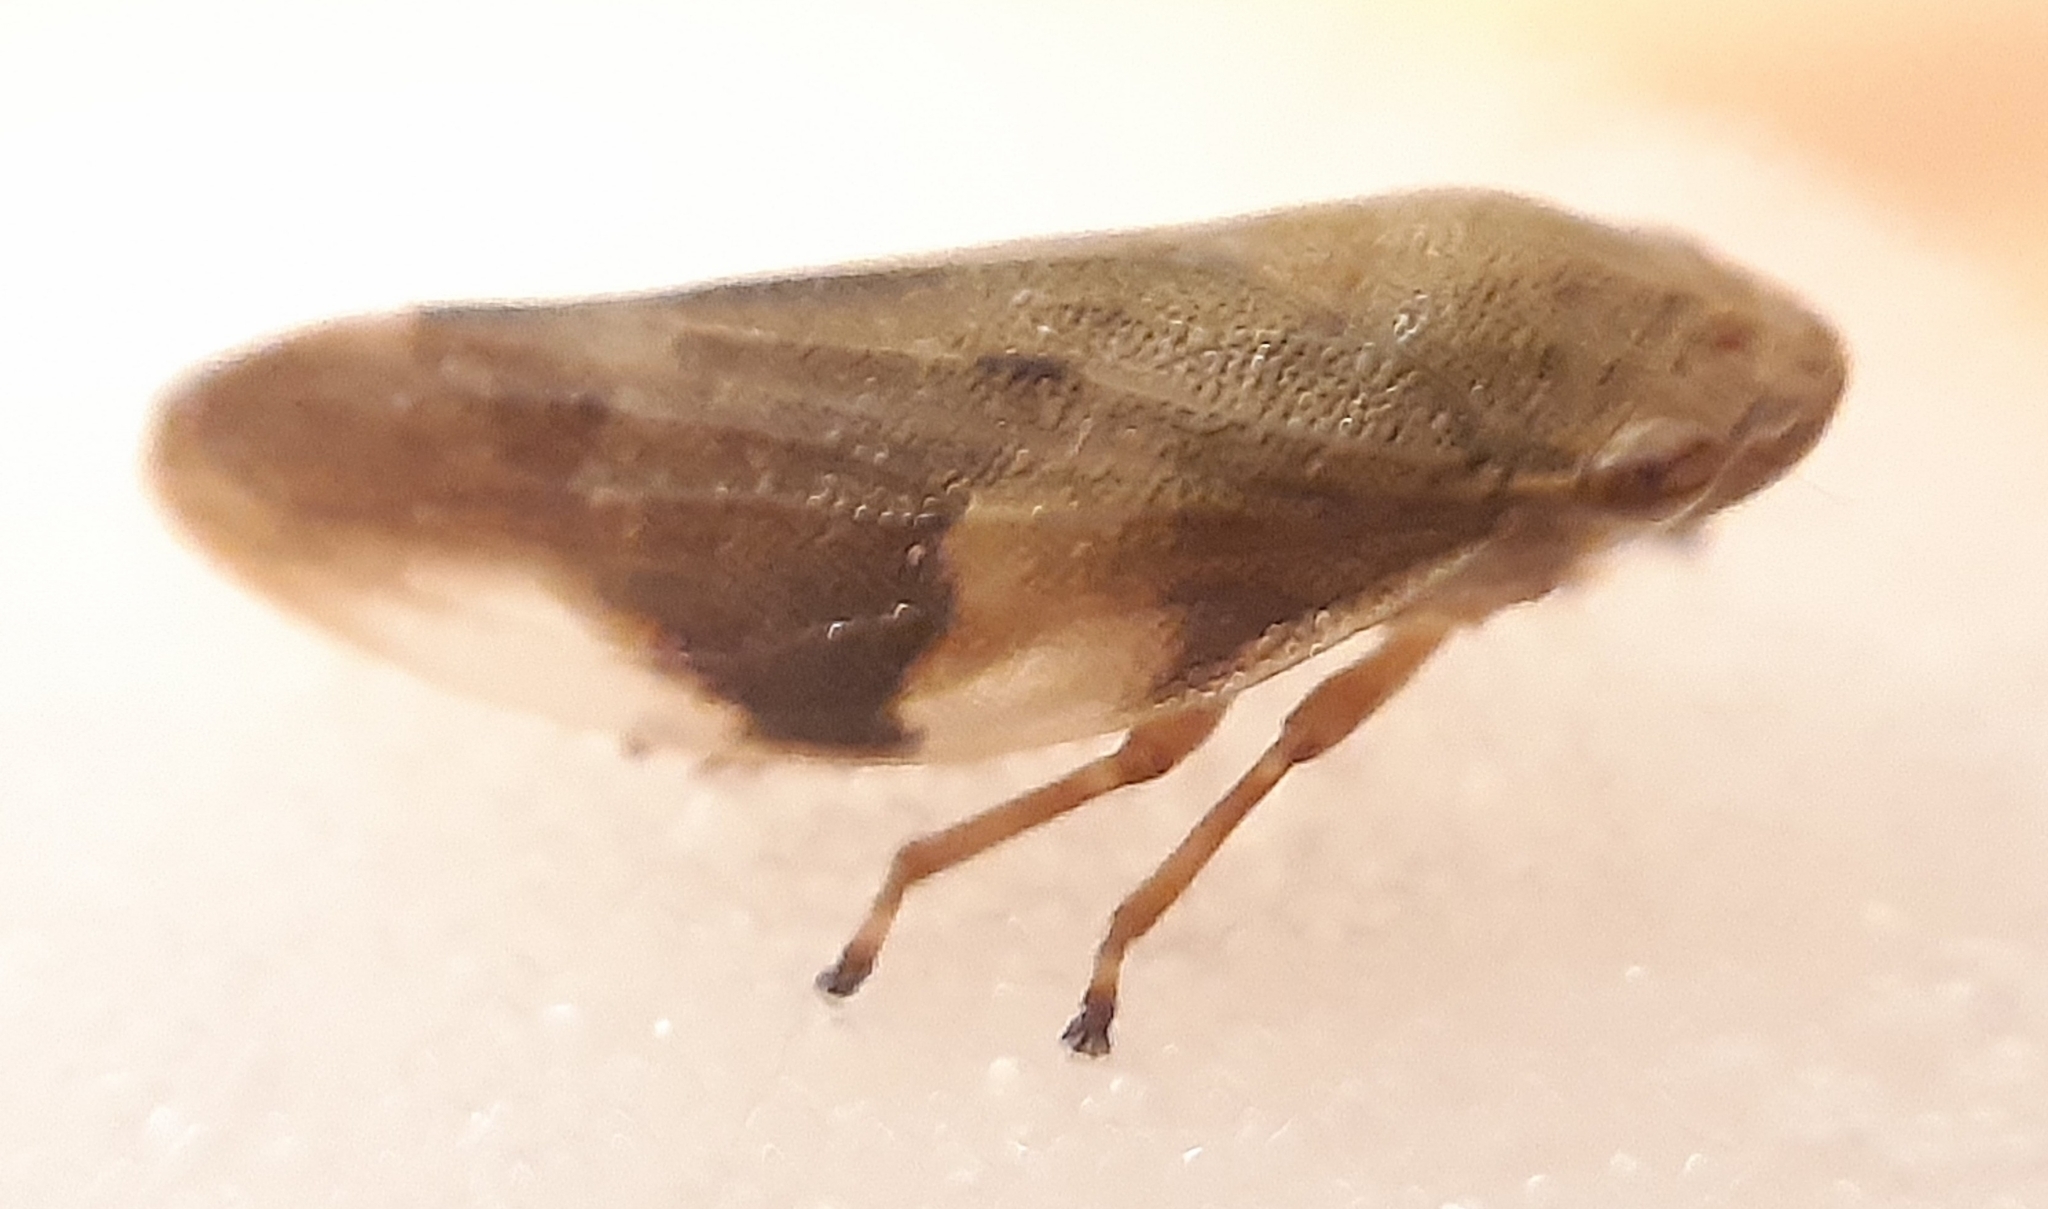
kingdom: Animalia
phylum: Arthropoda
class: Insecta
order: Hemiptera
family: Aphrophoridae
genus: Aphrophora
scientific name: Aphrophora alni
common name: European alder spittlebug
